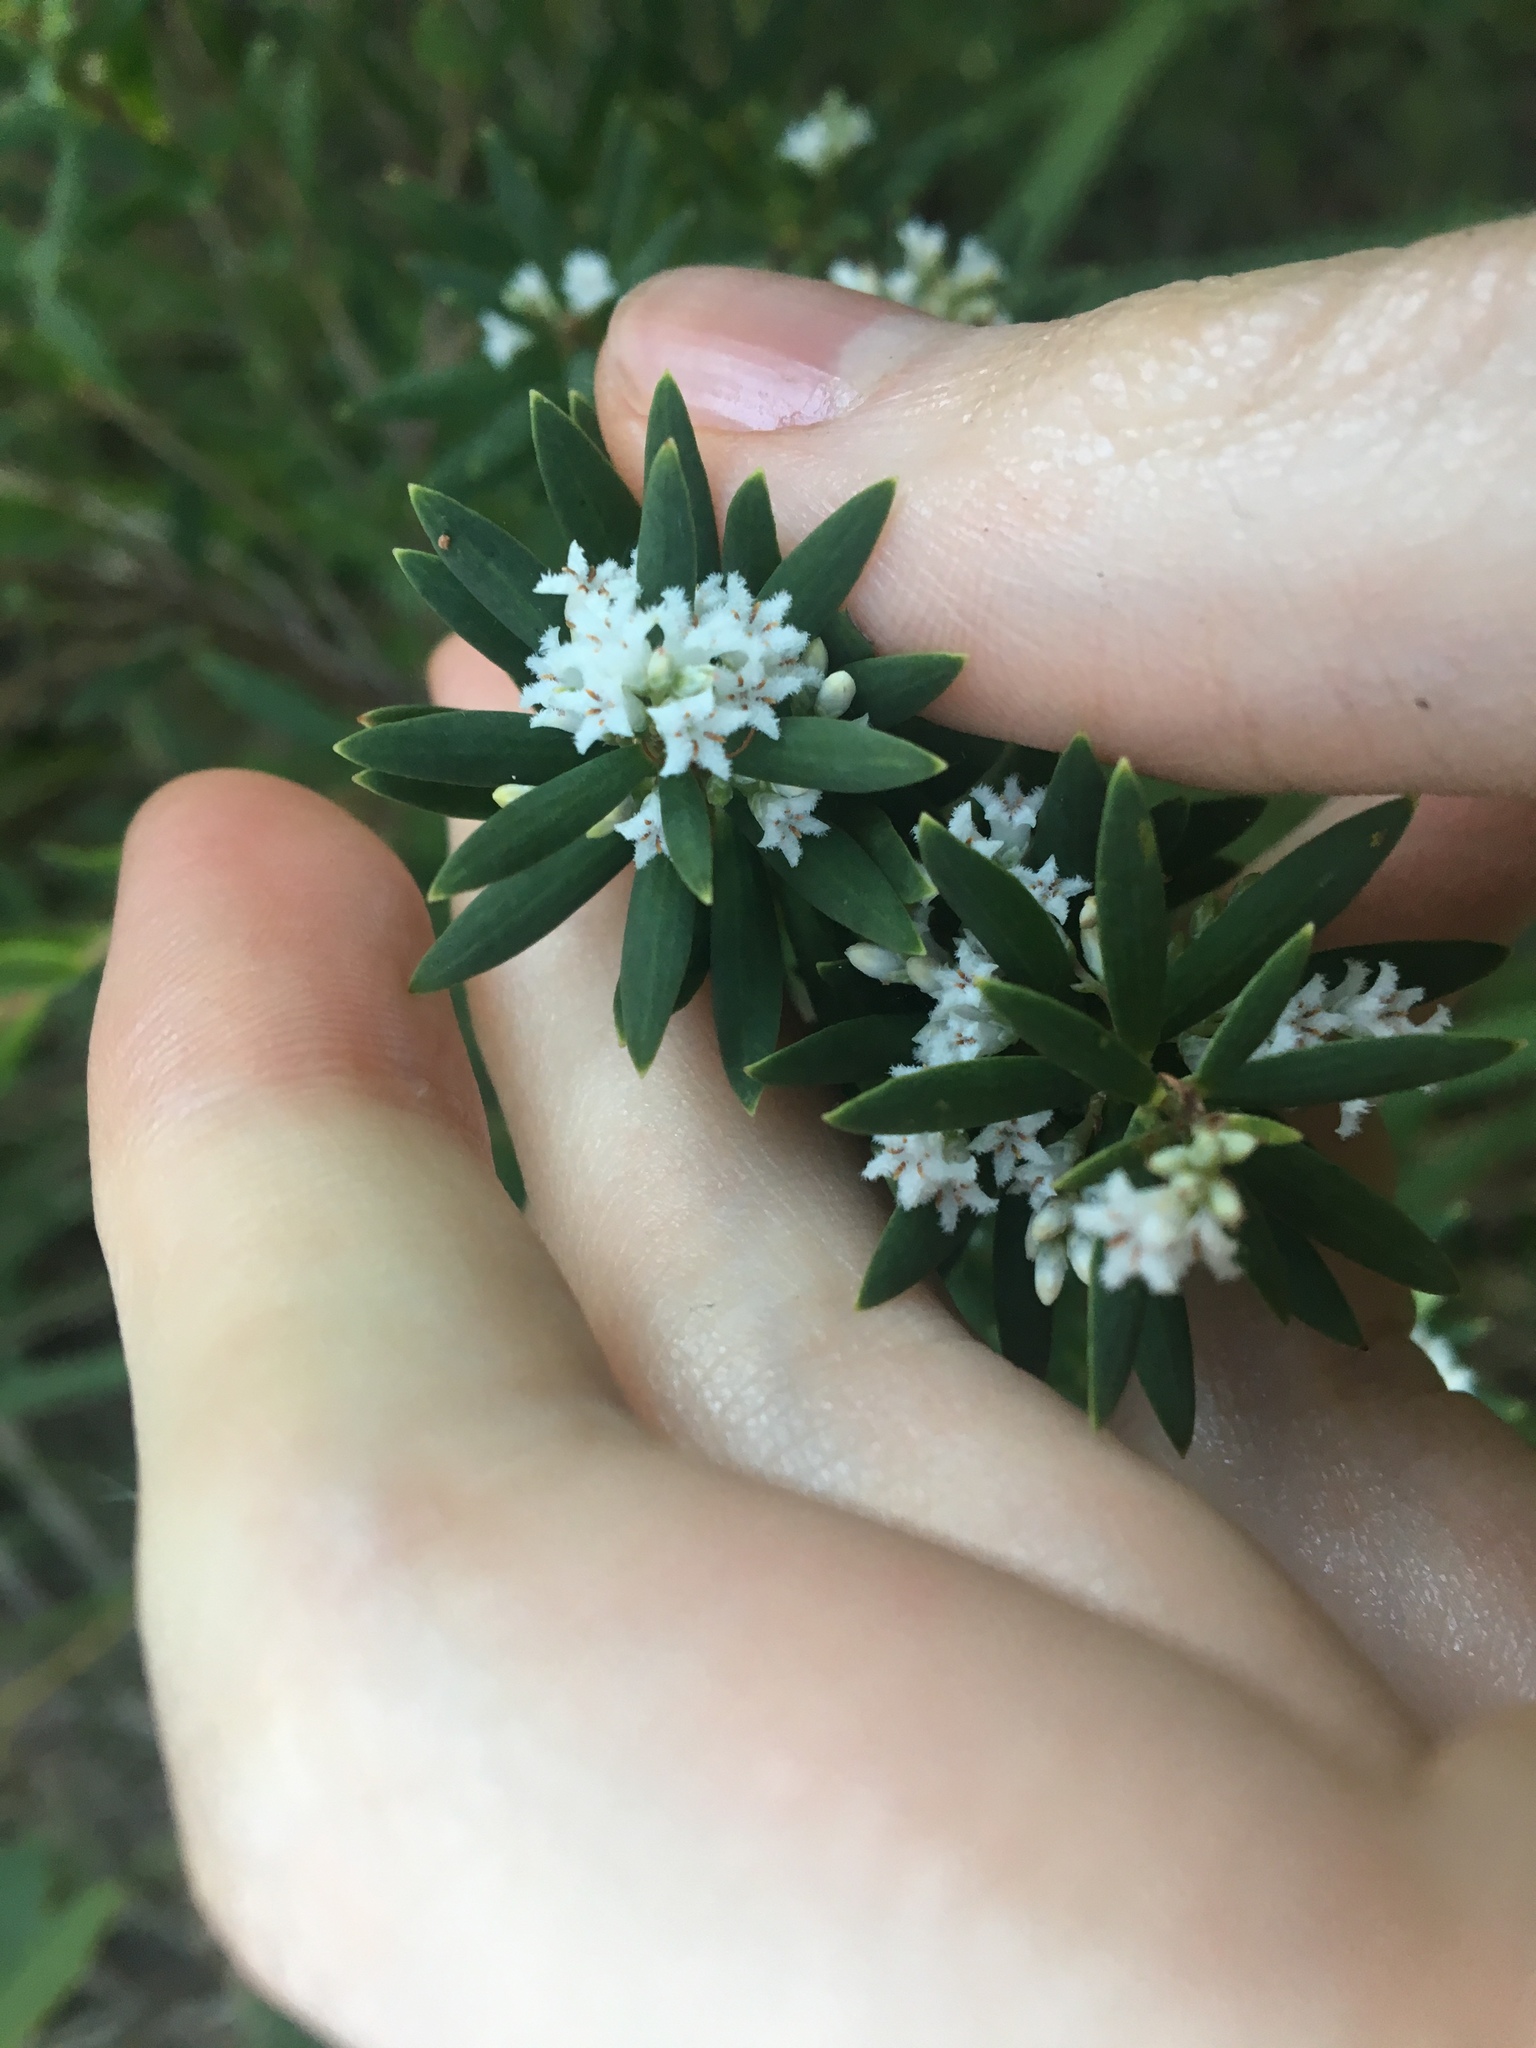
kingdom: Plantae
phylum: Tracheophyta
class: Magnoliopsida
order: Ericales
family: Ericaceae
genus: Leptecophylla
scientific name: Leptecophylla parvifolia
